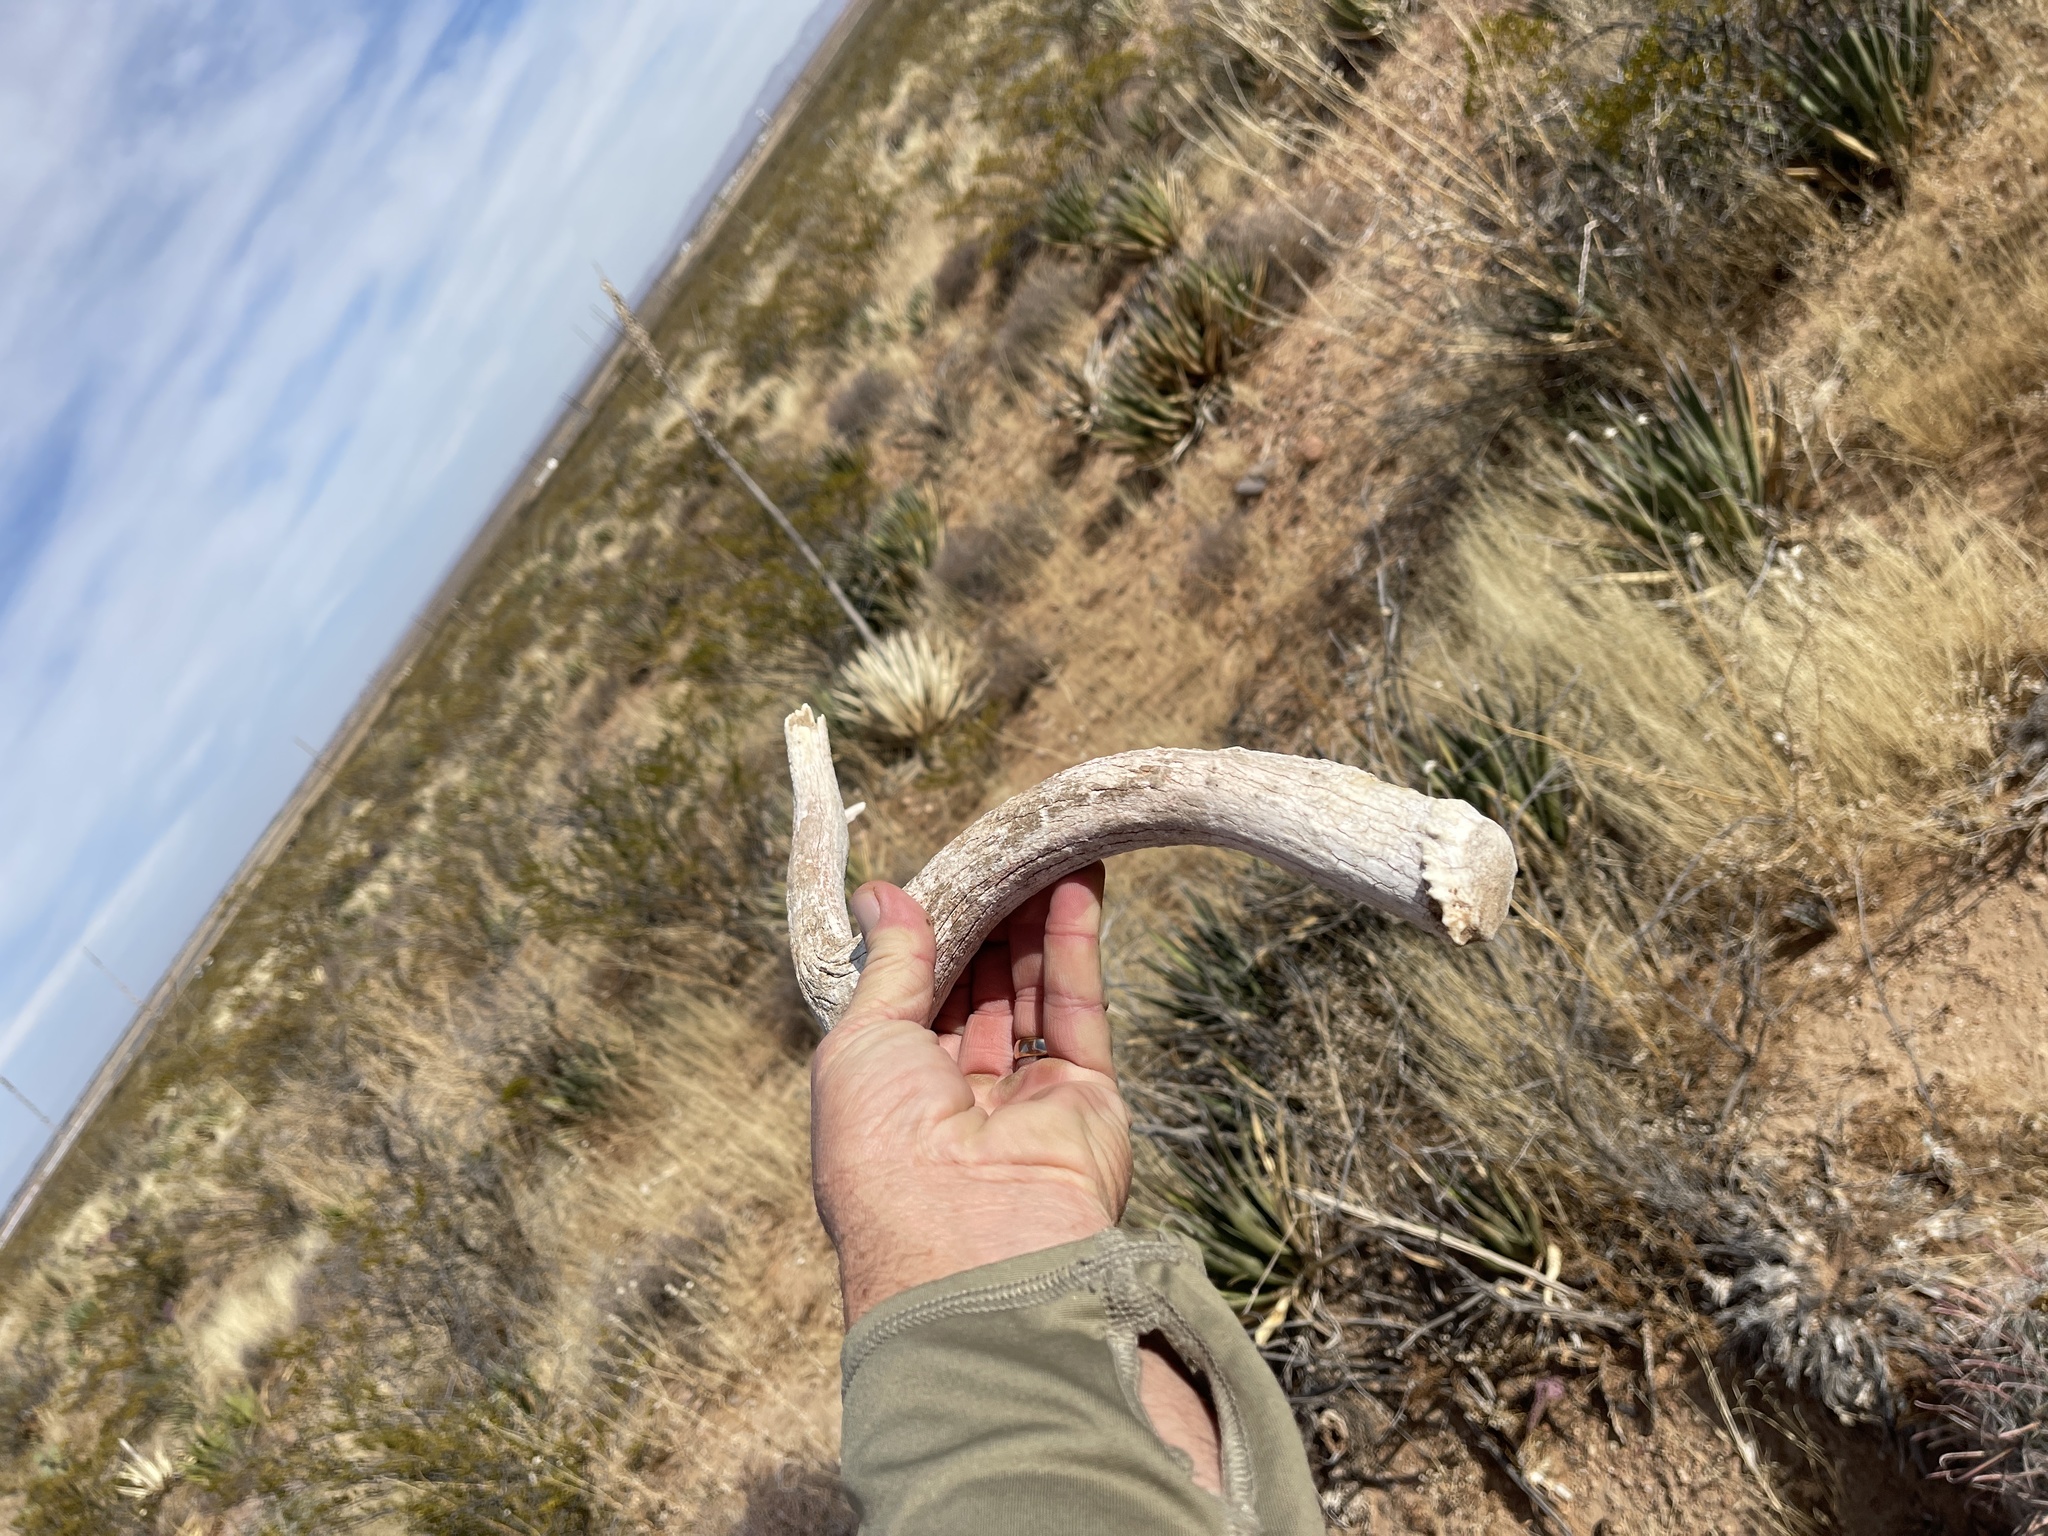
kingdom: Animalia
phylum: Chordata
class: Mammalia
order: Artiodactyla
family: Cervidae
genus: Odocoileus
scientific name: Odocoileus hemionus
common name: Mule deer
